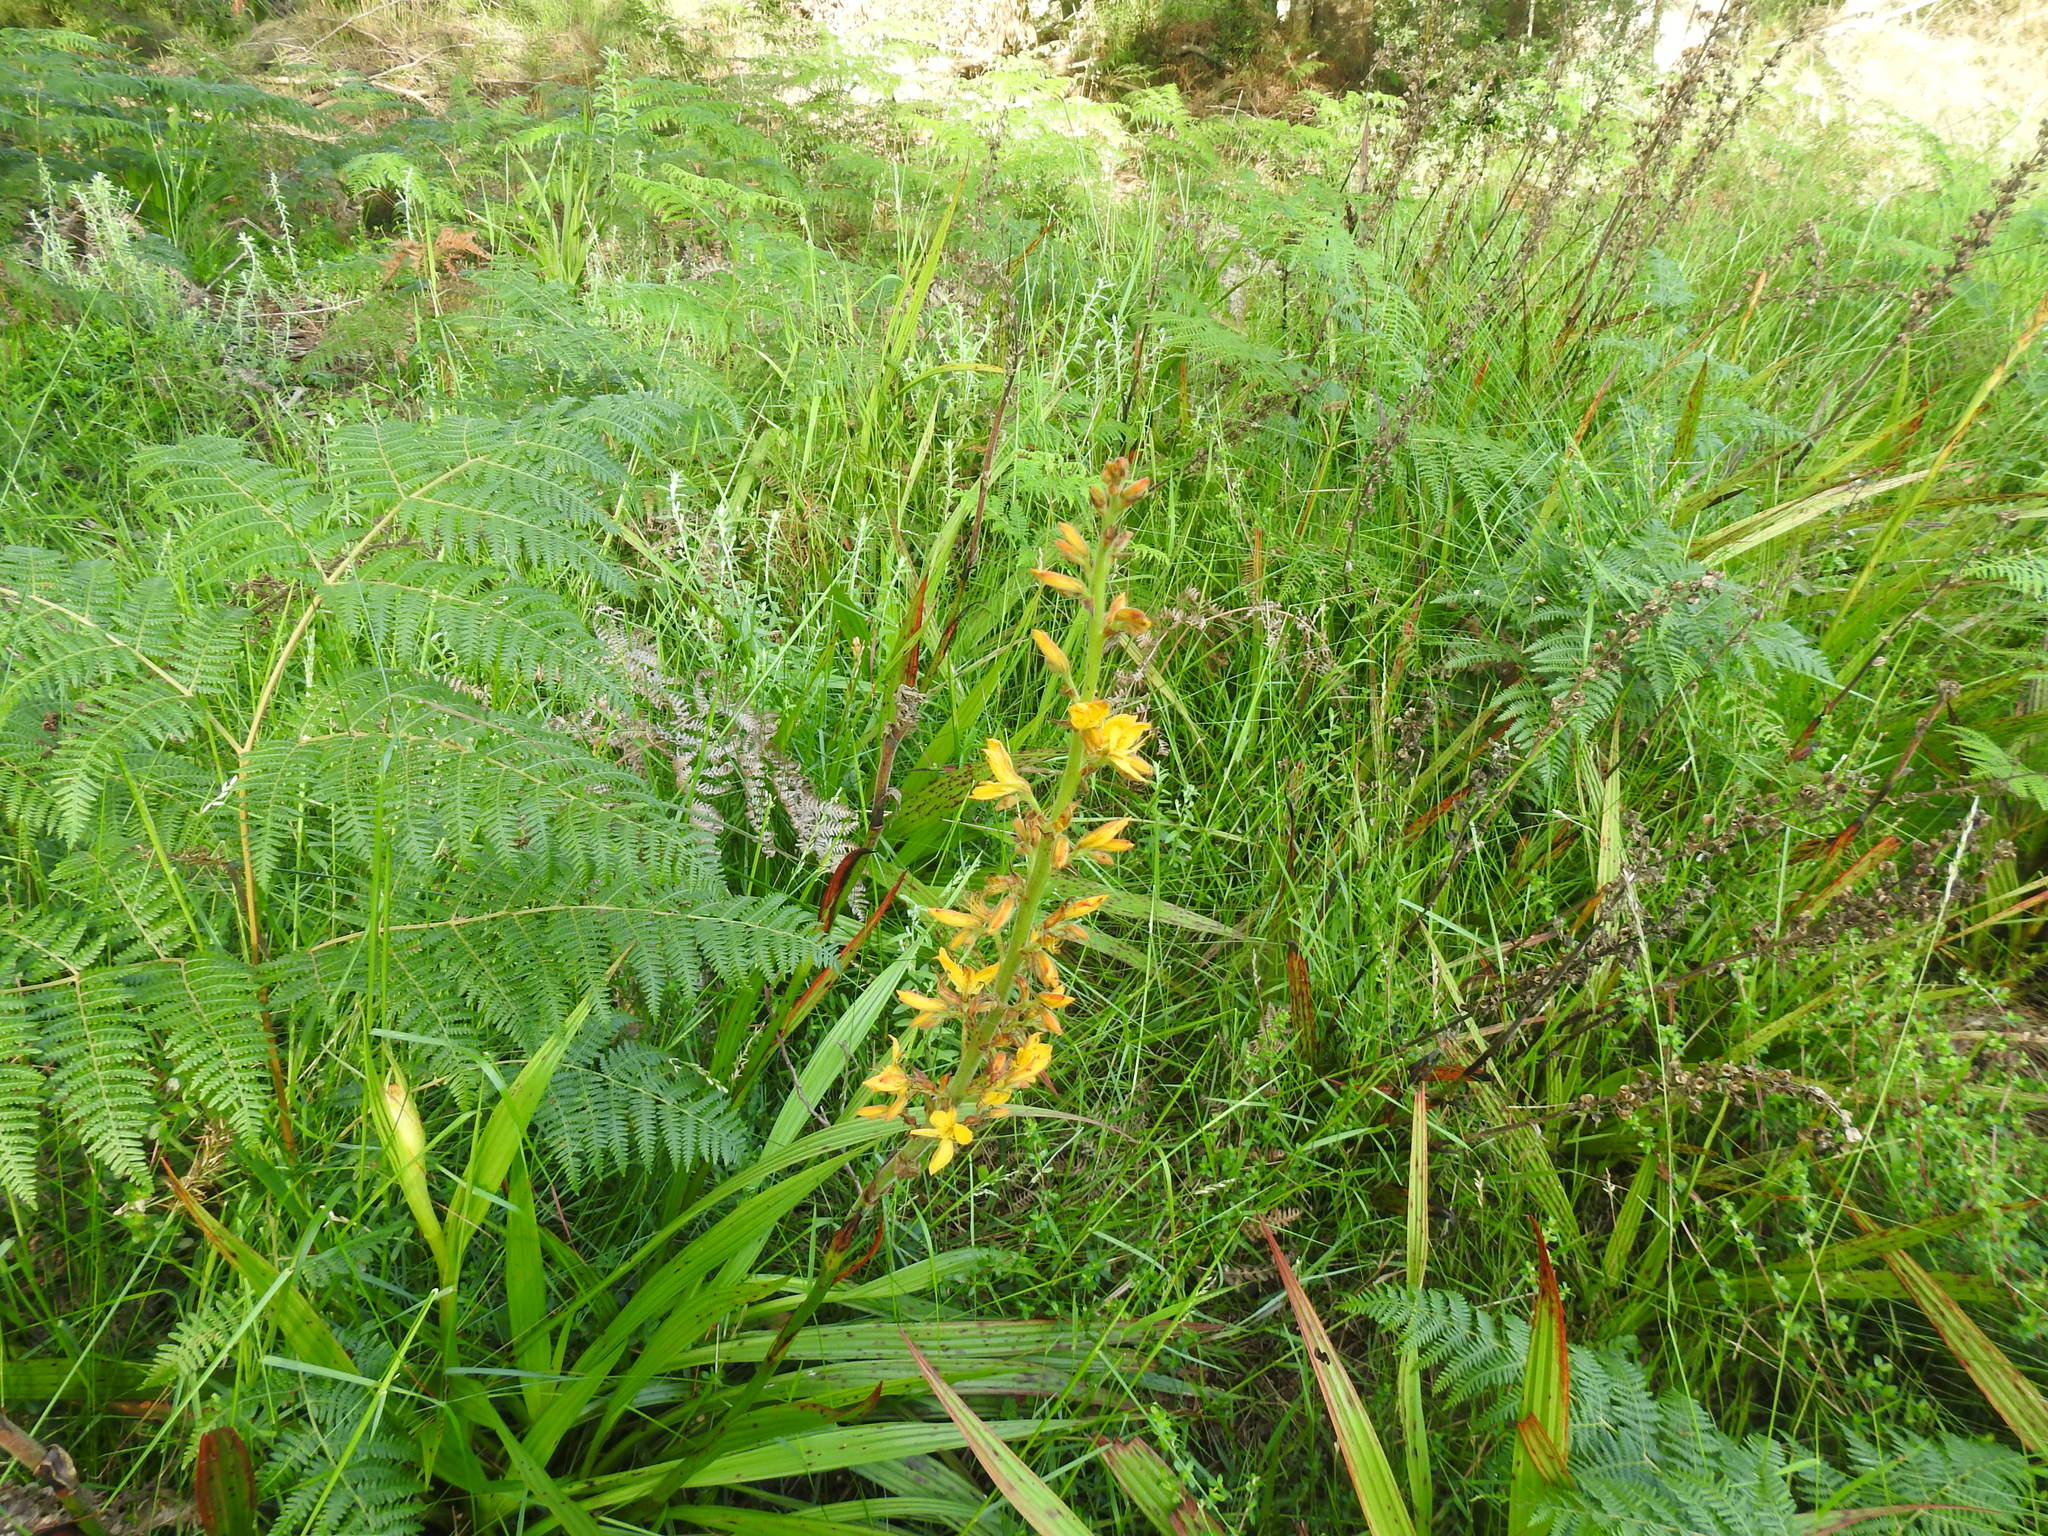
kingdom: Plantae
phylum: Tracheophyta
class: Liliopsida
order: Commelinales
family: Haemodoraceae
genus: Wachendorfia
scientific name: Wachendorfia thyrsiflora
